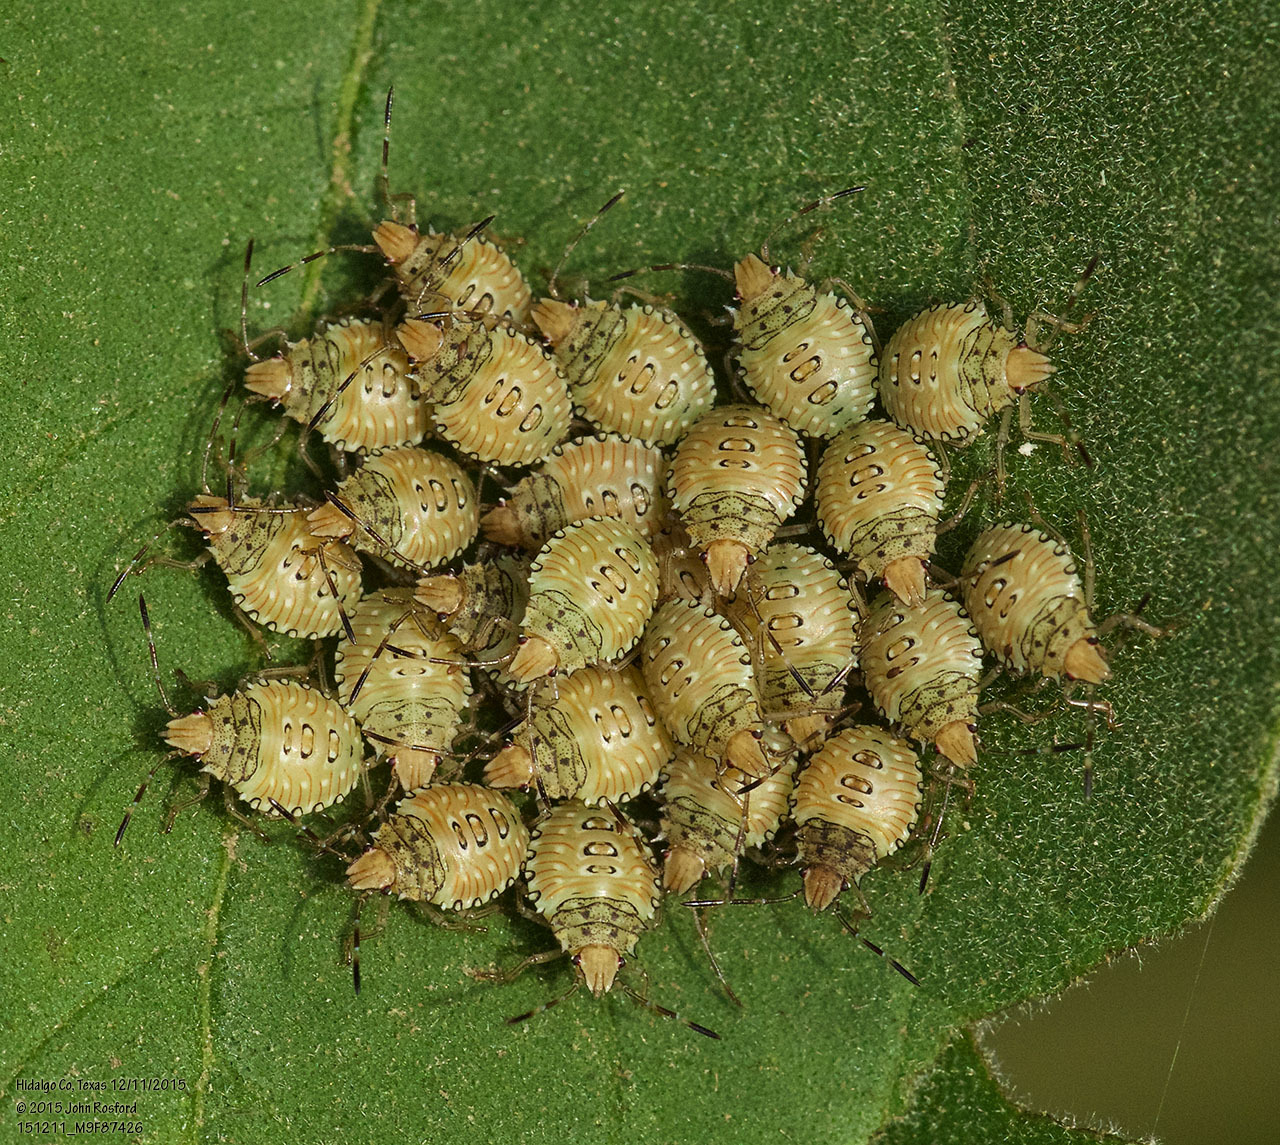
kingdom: Animalia
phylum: Arthropoda
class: Insecta
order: Hemiptera
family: Pentatomidae
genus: Arvelius
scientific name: Arvelius albopunctatus
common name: Tomato stink bug
